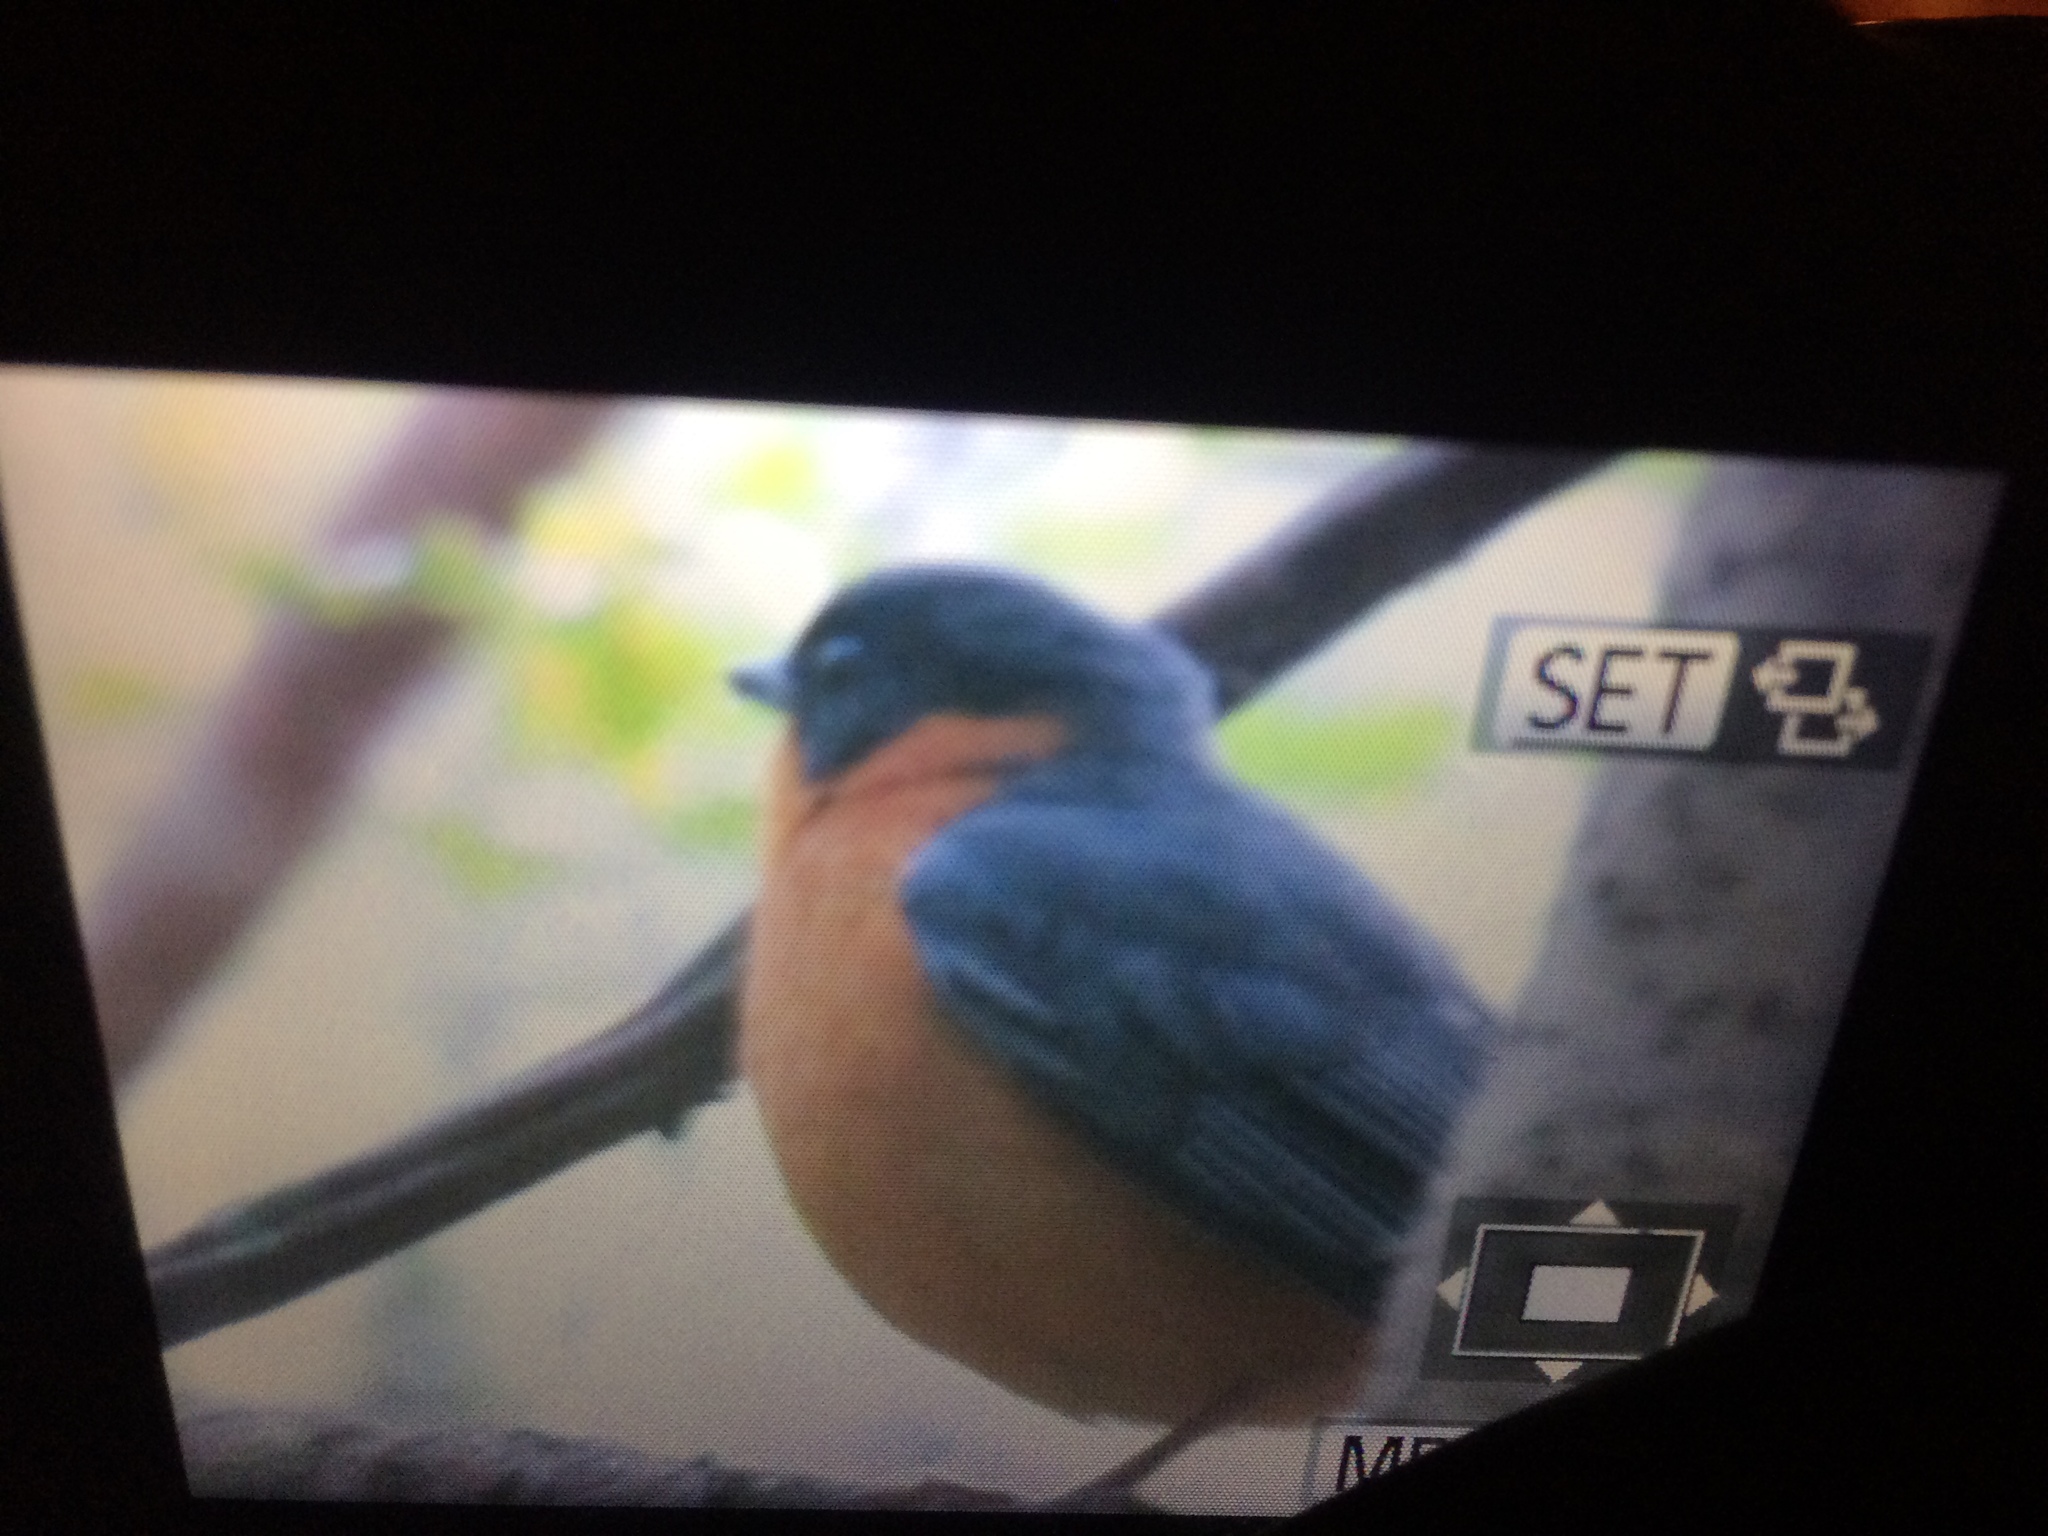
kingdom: Animalia
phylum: Chordata
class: Aves
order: Passeriformes
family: Muscicapidae
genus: Cossypha
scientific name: Cossypha dichroa
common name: Chorister robin-chat
